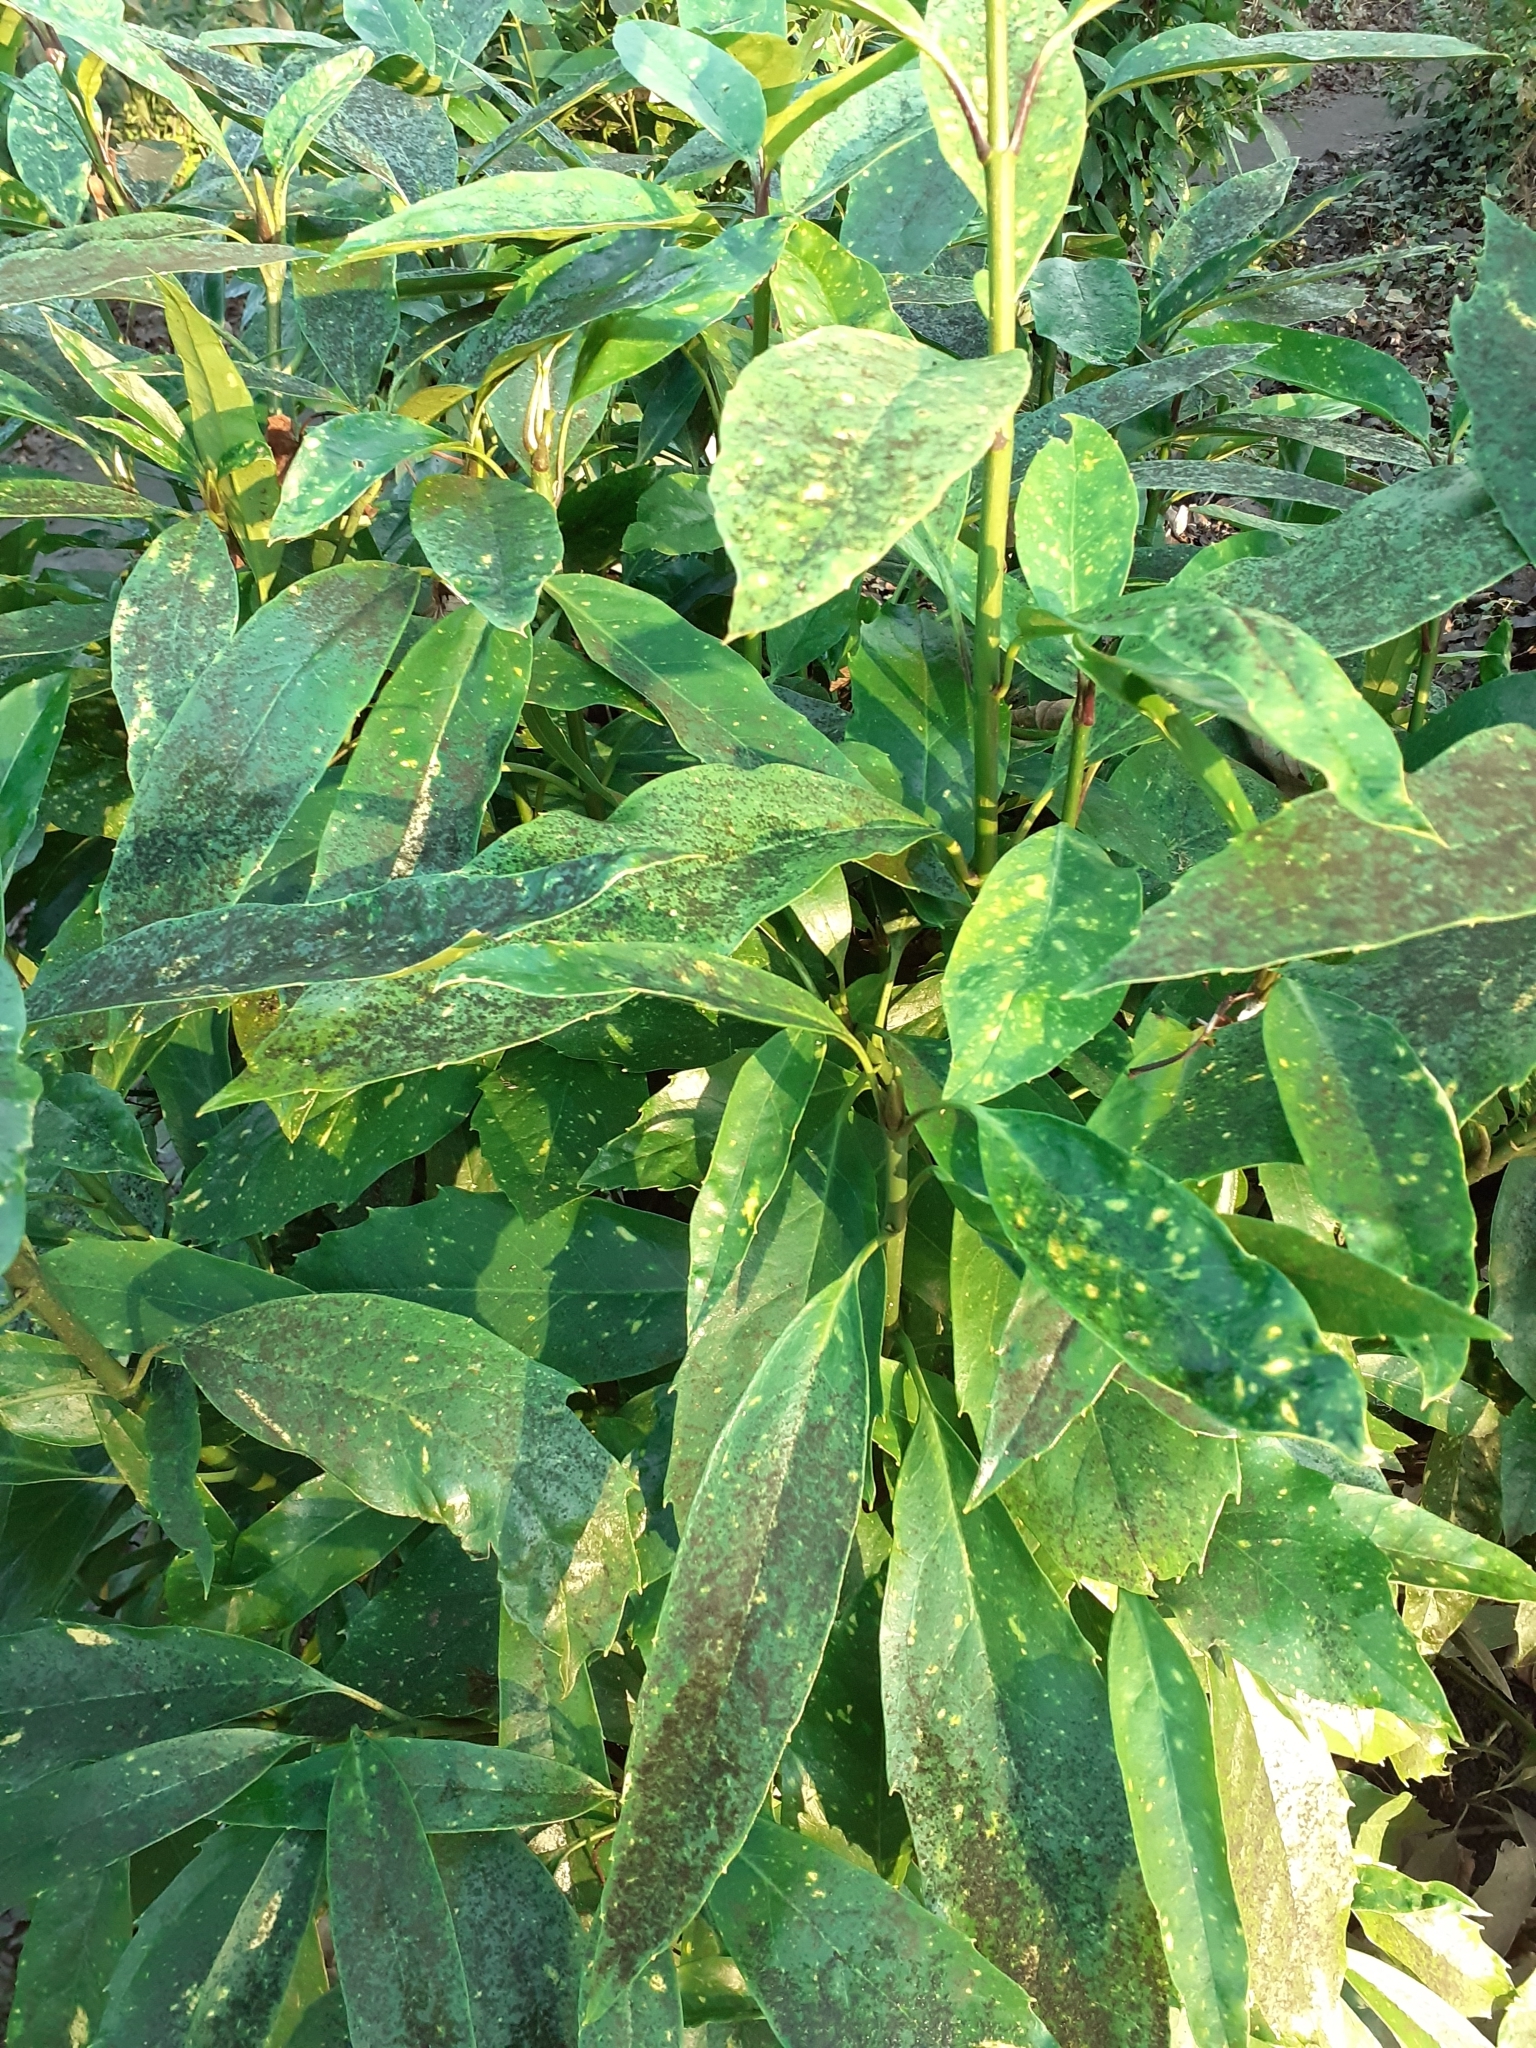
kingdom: Plantae
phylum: Tracheophyta
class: Magnoliopsida
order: Garryales
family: Garryaceae
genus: Aucuba
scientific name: Aucuba japonica
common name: Spotted-laurel
